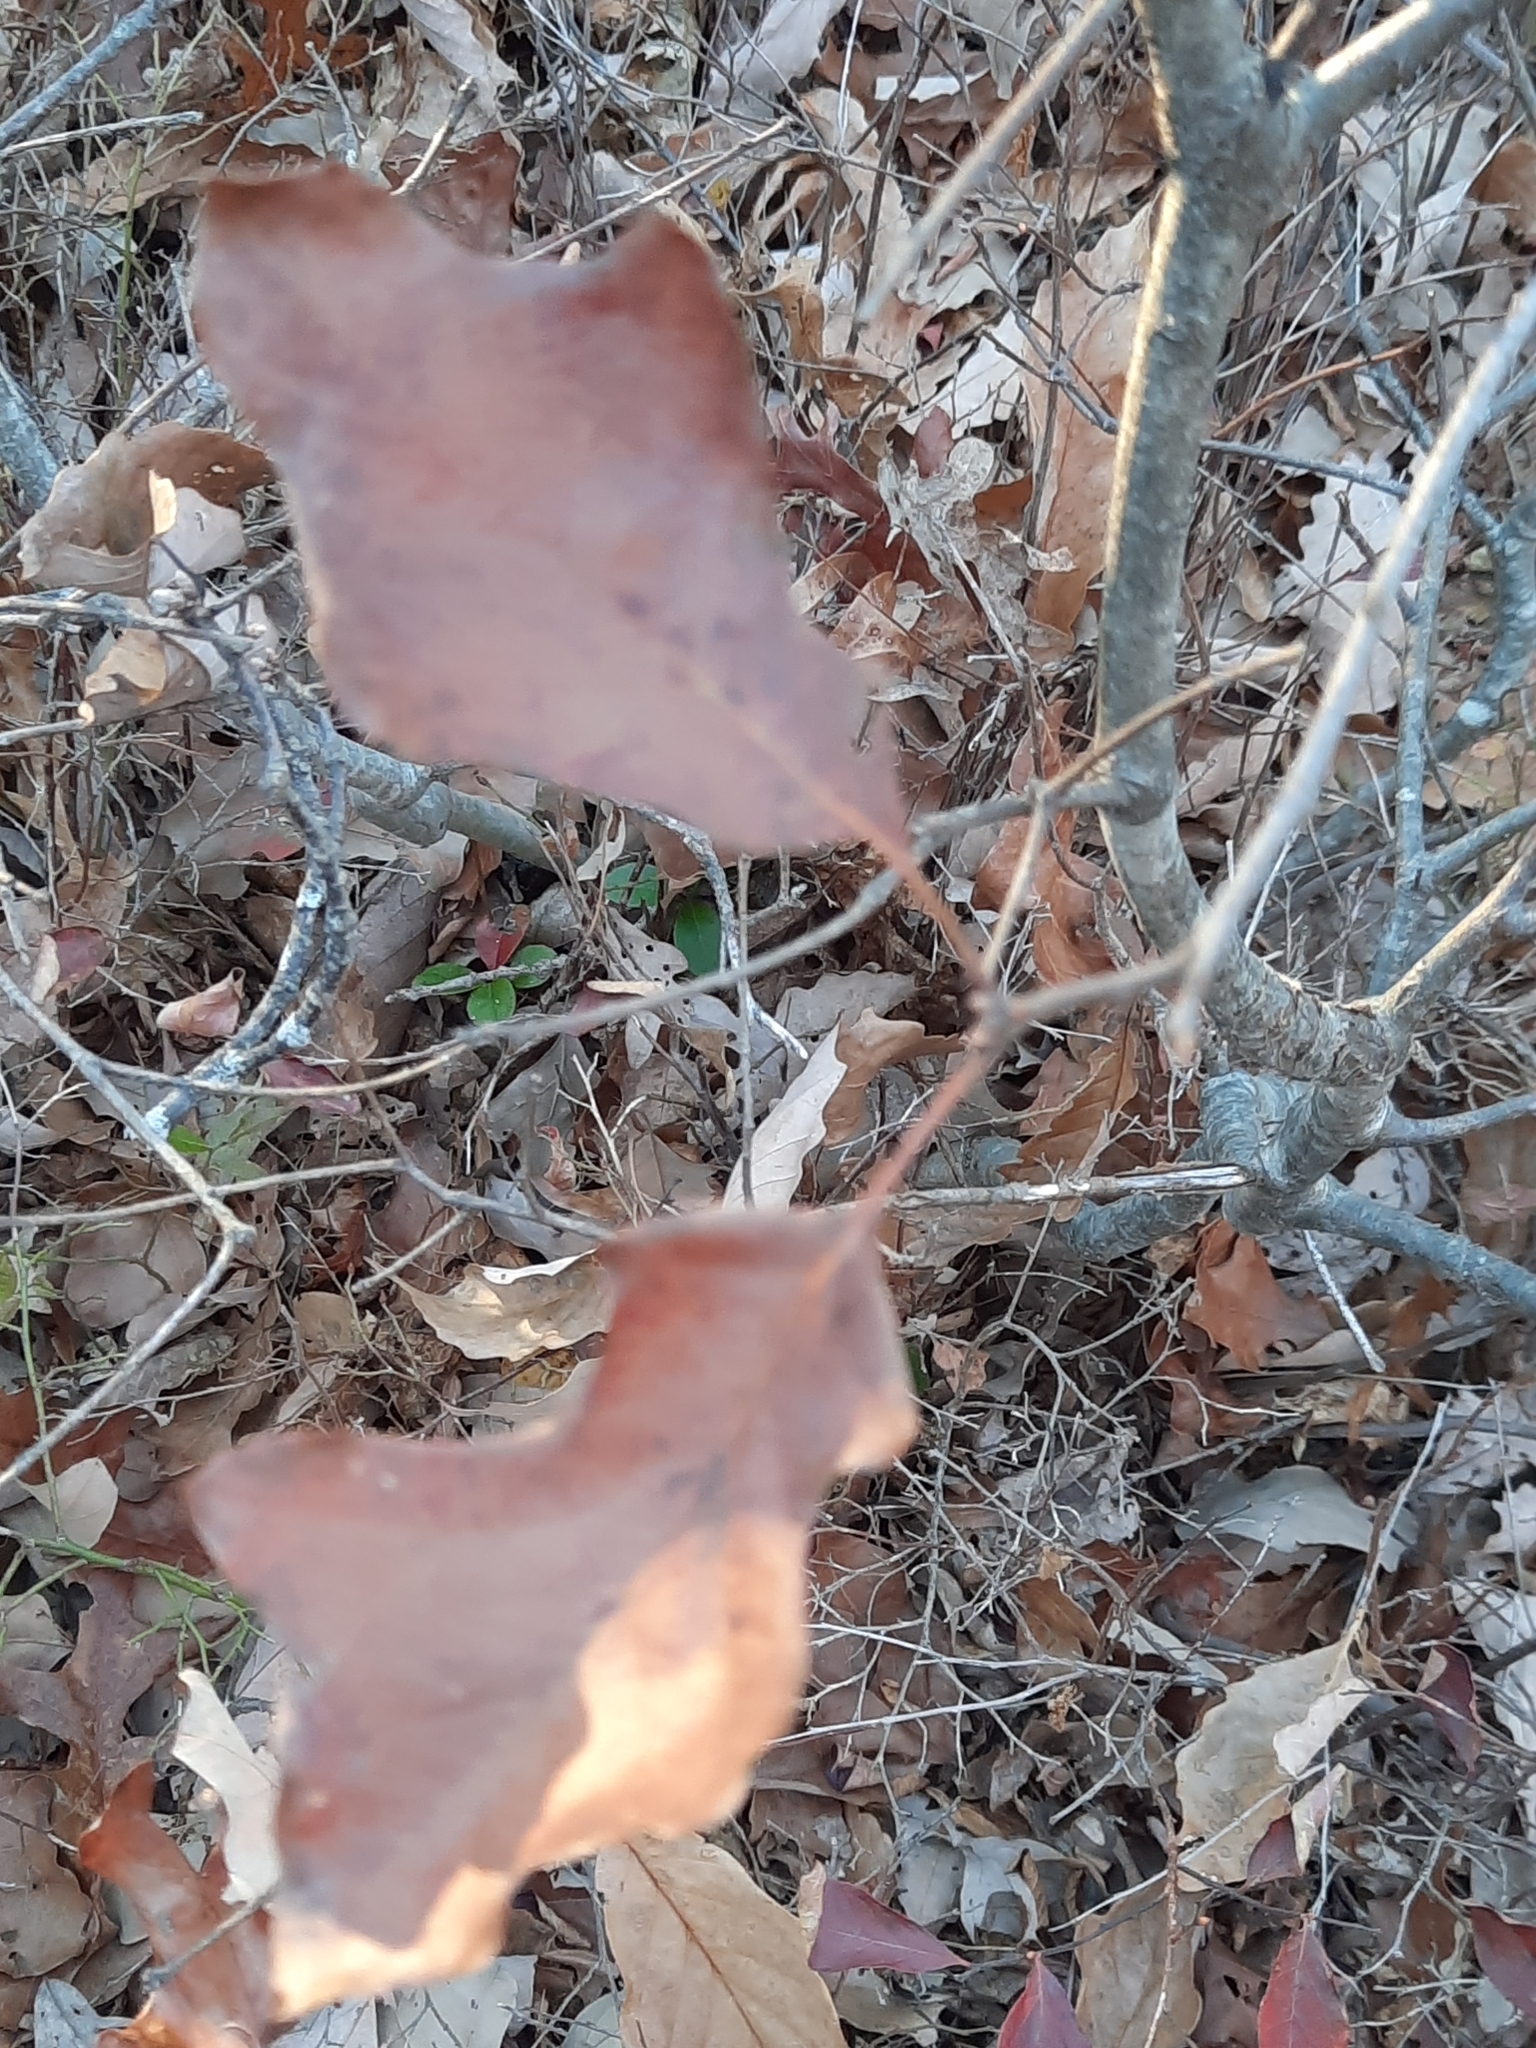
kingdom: Plantae
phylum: Tracheophyta
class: Magnoliopsida
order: Ericales
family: Ericaceae
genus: Gaultheria
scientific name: Gaultheria procumbens
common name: Checkerberry
